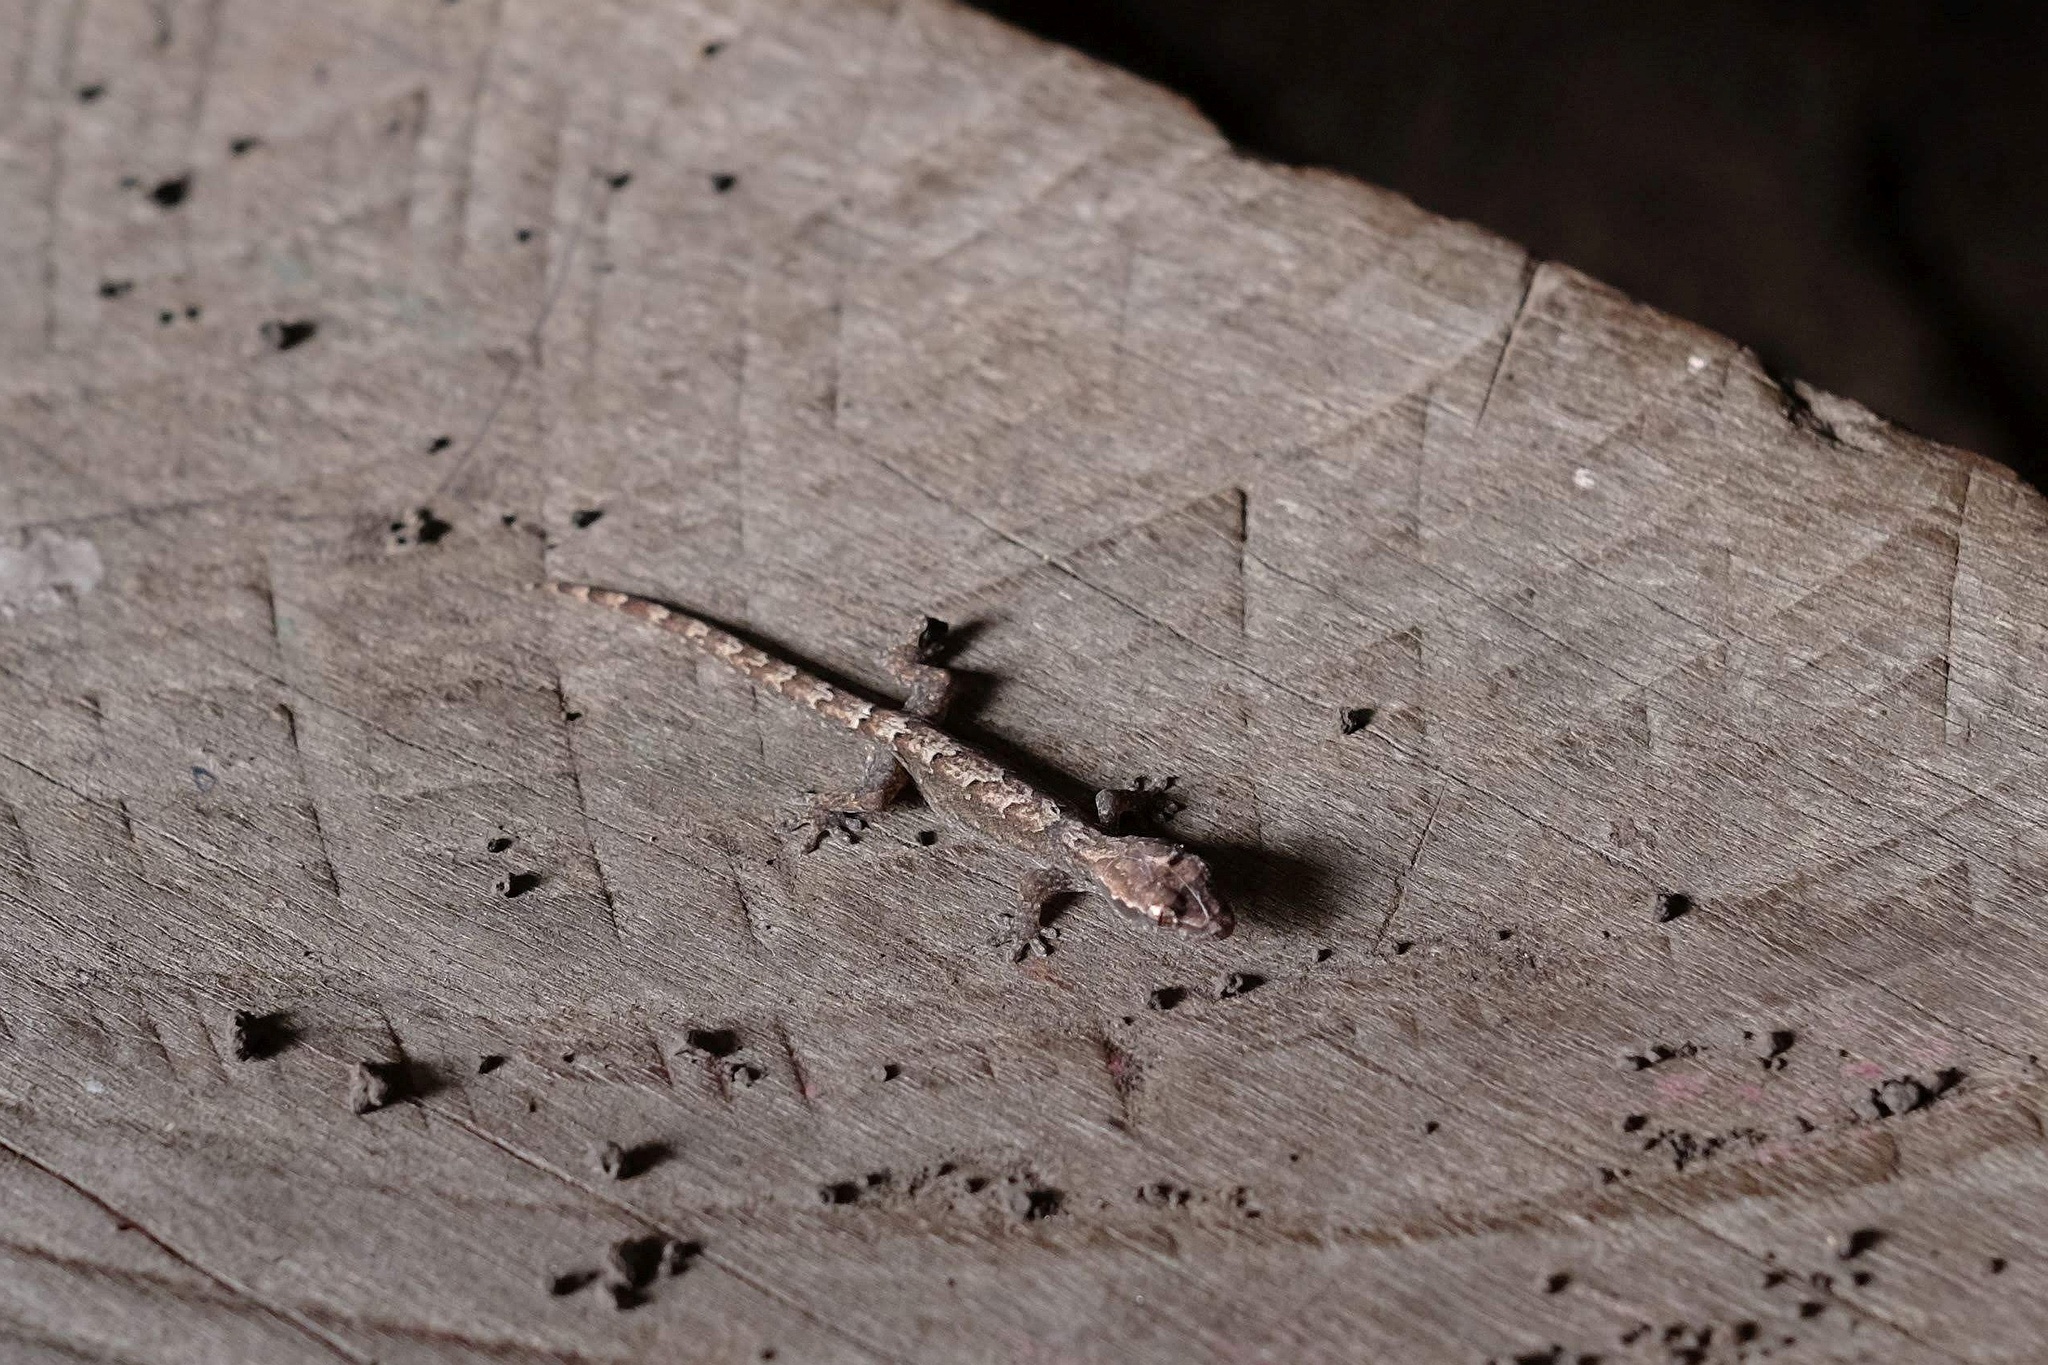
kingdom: Animalia
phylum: Chordata
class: Squamata
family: Gekkonidae
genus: Lepidodactylus
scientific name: Lepidodactylus lugubris
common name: Mourning gecko
